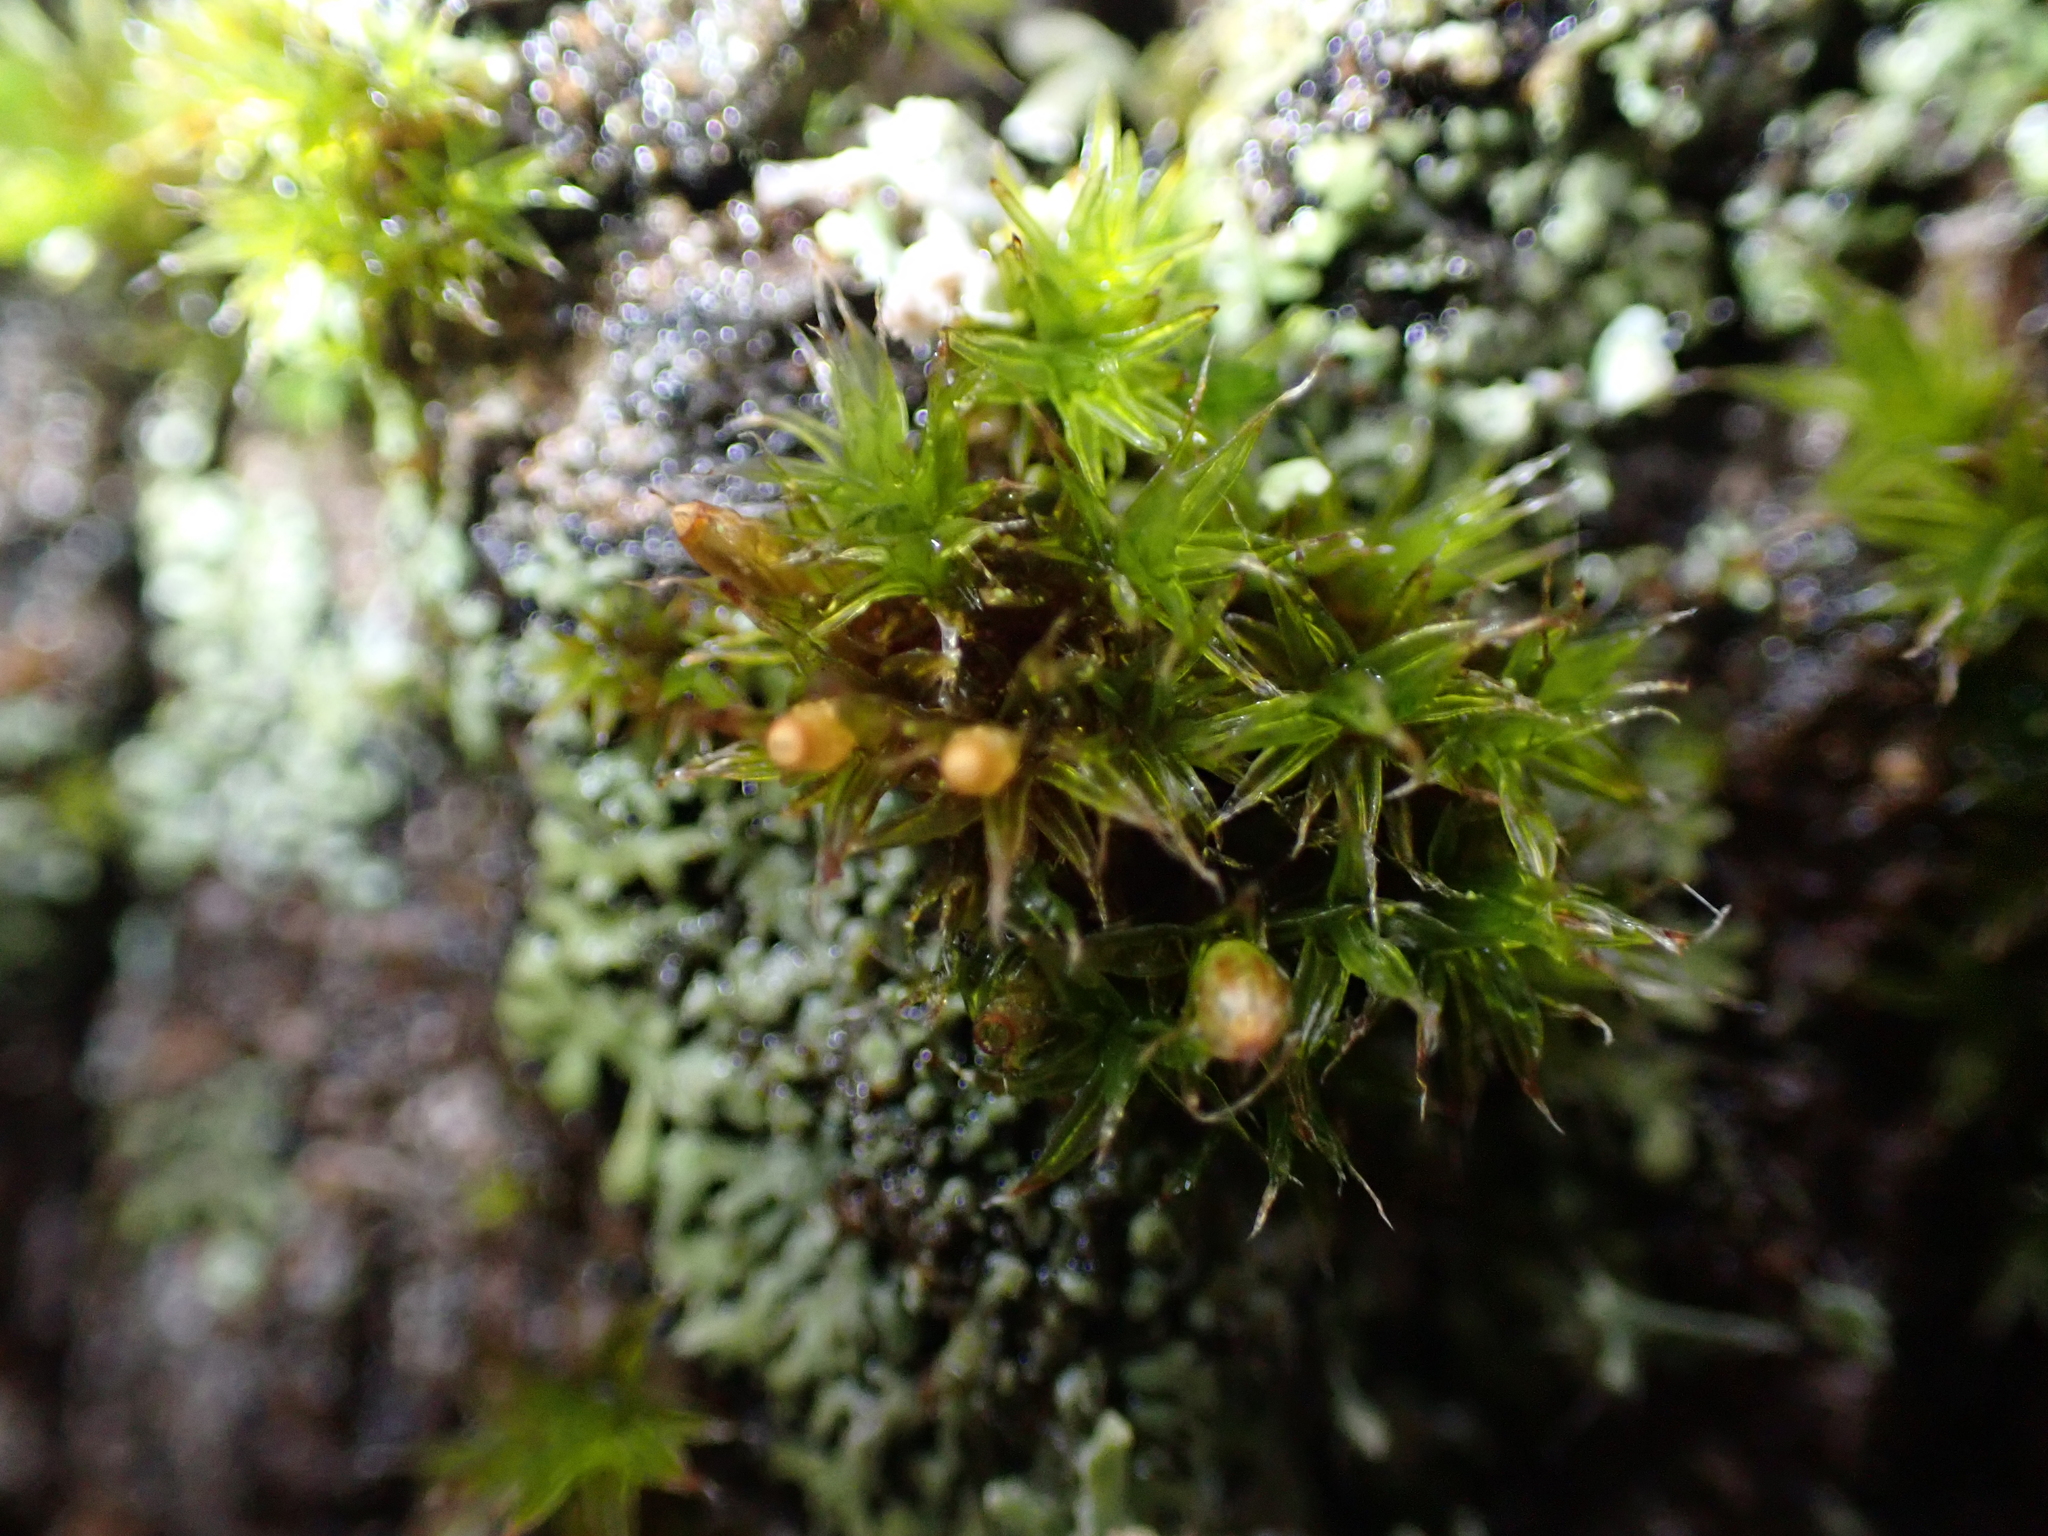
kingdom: Plantae
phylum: Bryophyta
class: Bryopsida
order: Orthotrichales
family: Orthotrichaceae
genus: Orthotrichum
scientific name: Orthotrichum diaphanum
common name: White-tipped bristle-moss
